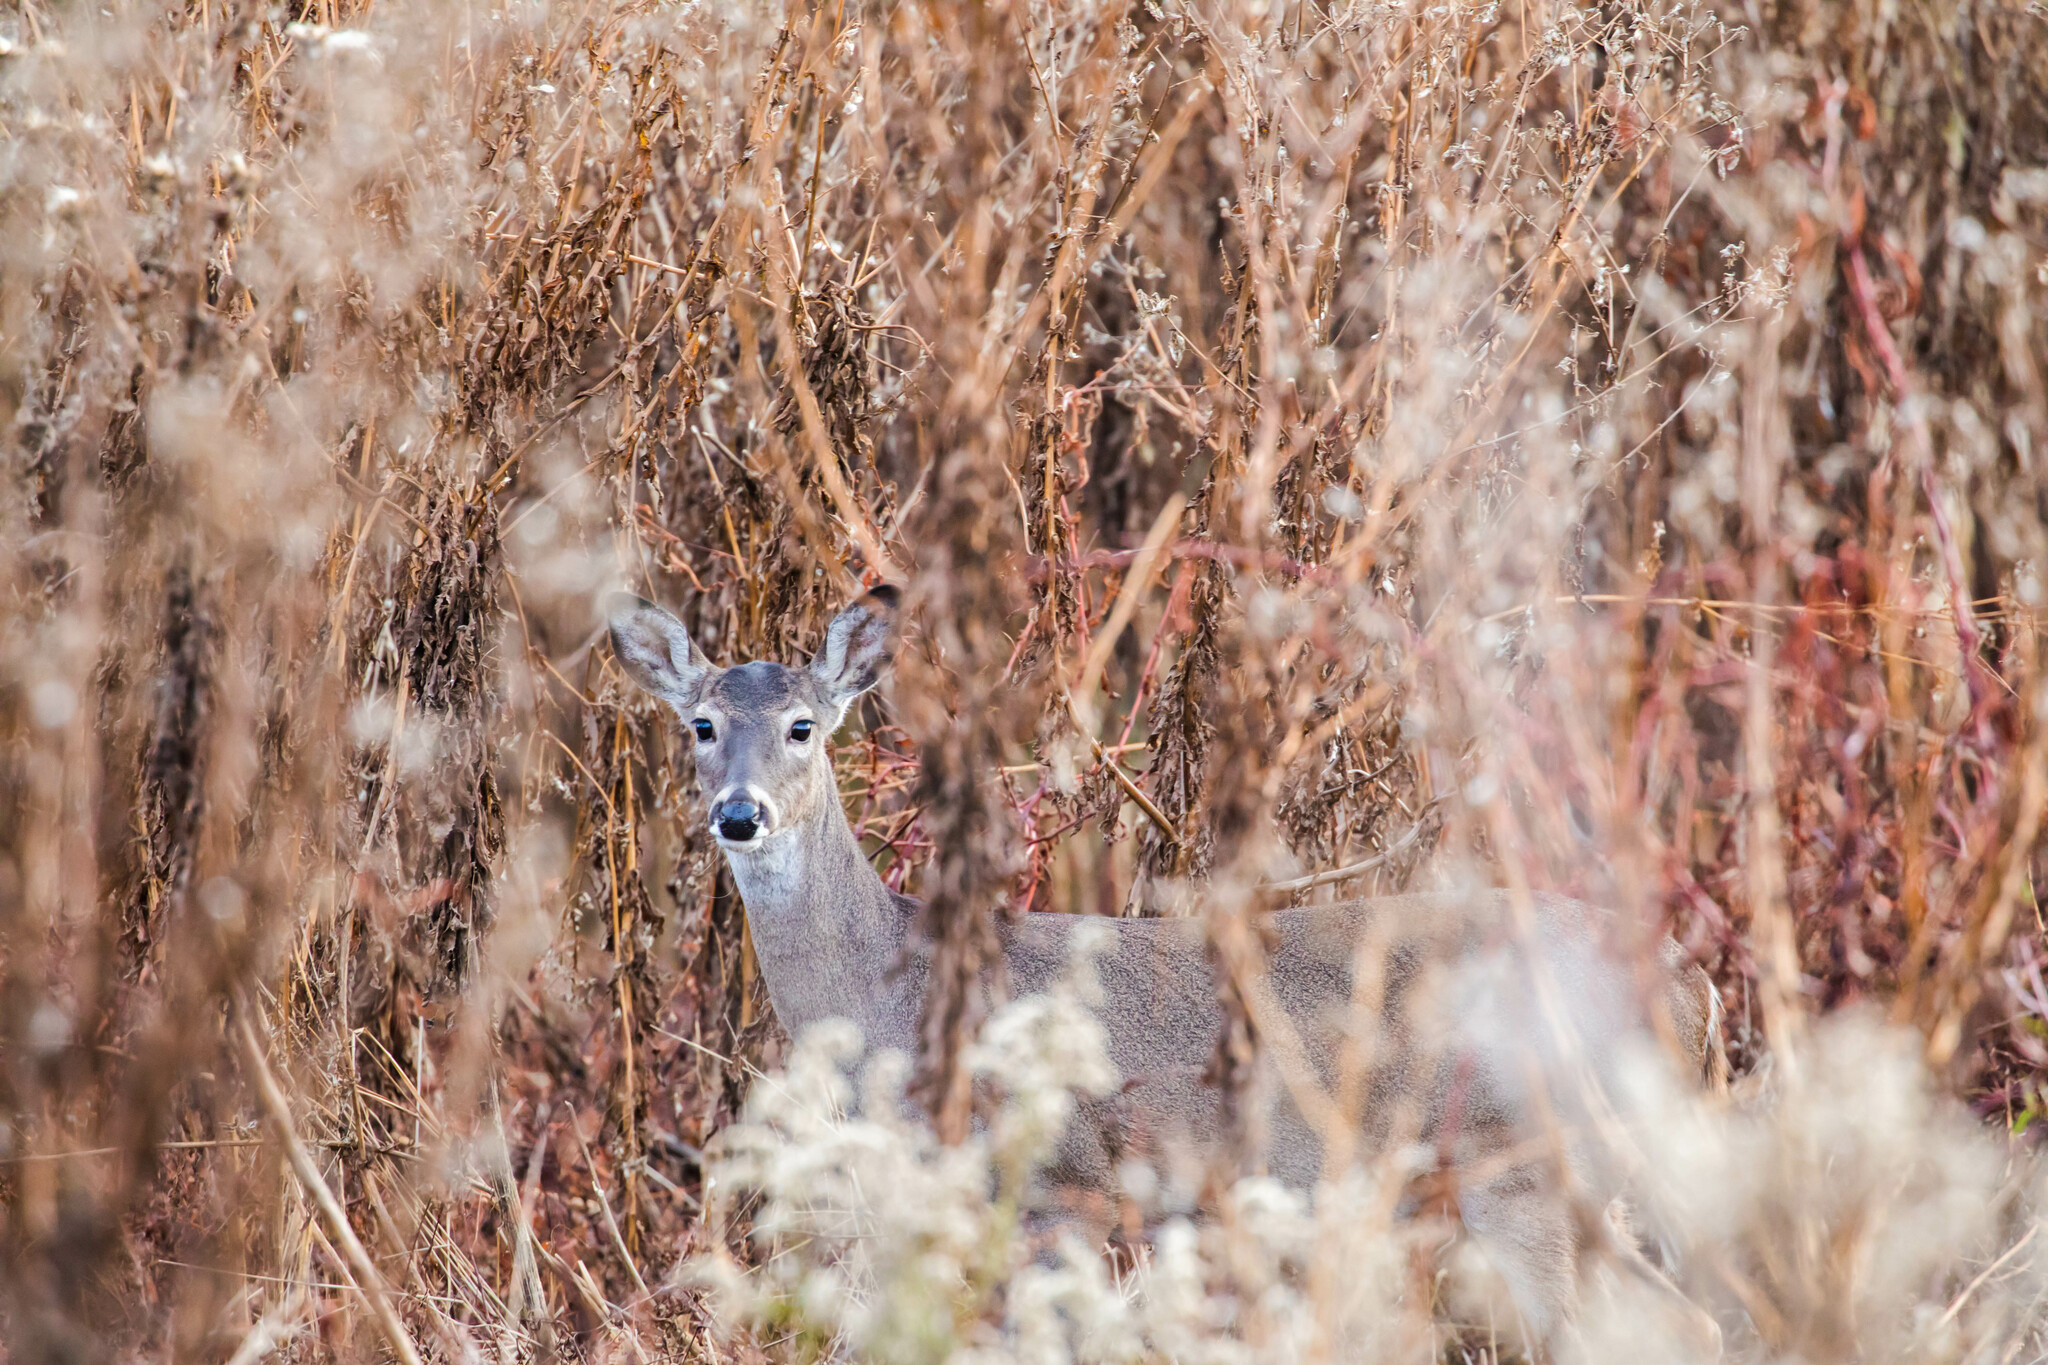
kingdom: Animalia
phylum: Chordata
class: Mammalia
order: Artiodactyla
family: Cervidae
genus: Odocoileus
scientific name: Odocoileus virginianus
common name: White-tailed deer
